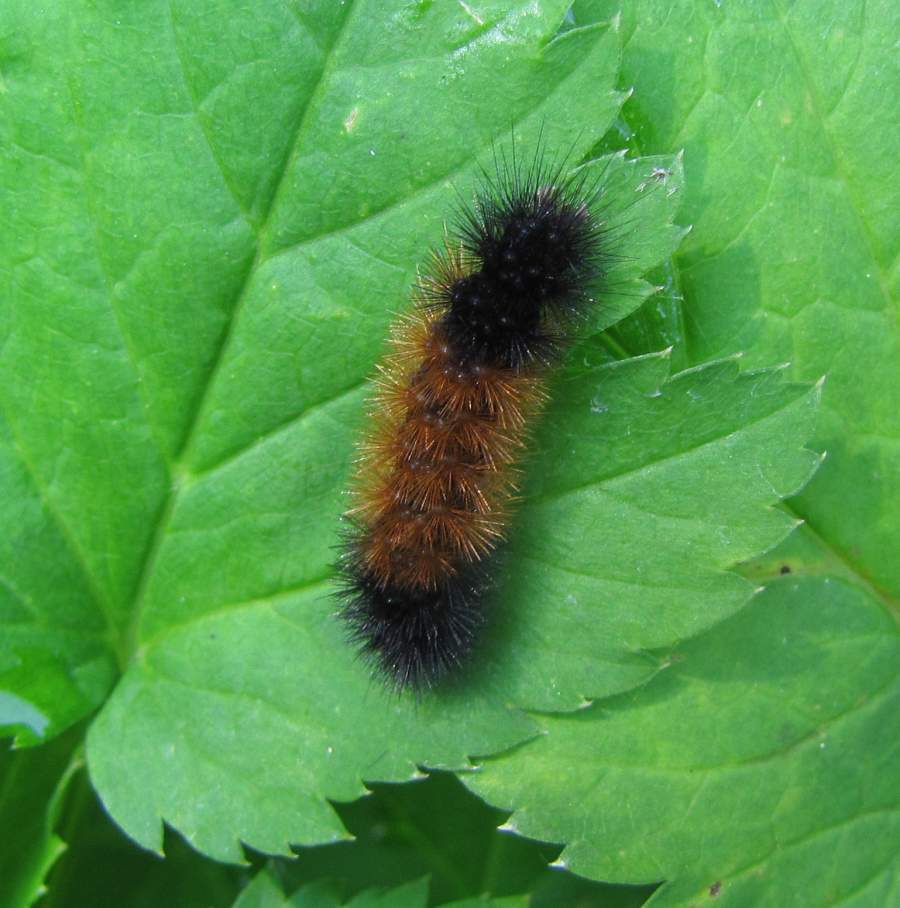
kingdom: Animalia
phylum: Arthropoda
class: Insecta
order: Lepidoptera
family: Erebidae
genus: Pyrrharctia
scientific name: Pyrrharctia isabella
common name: Isabella tiger moth
